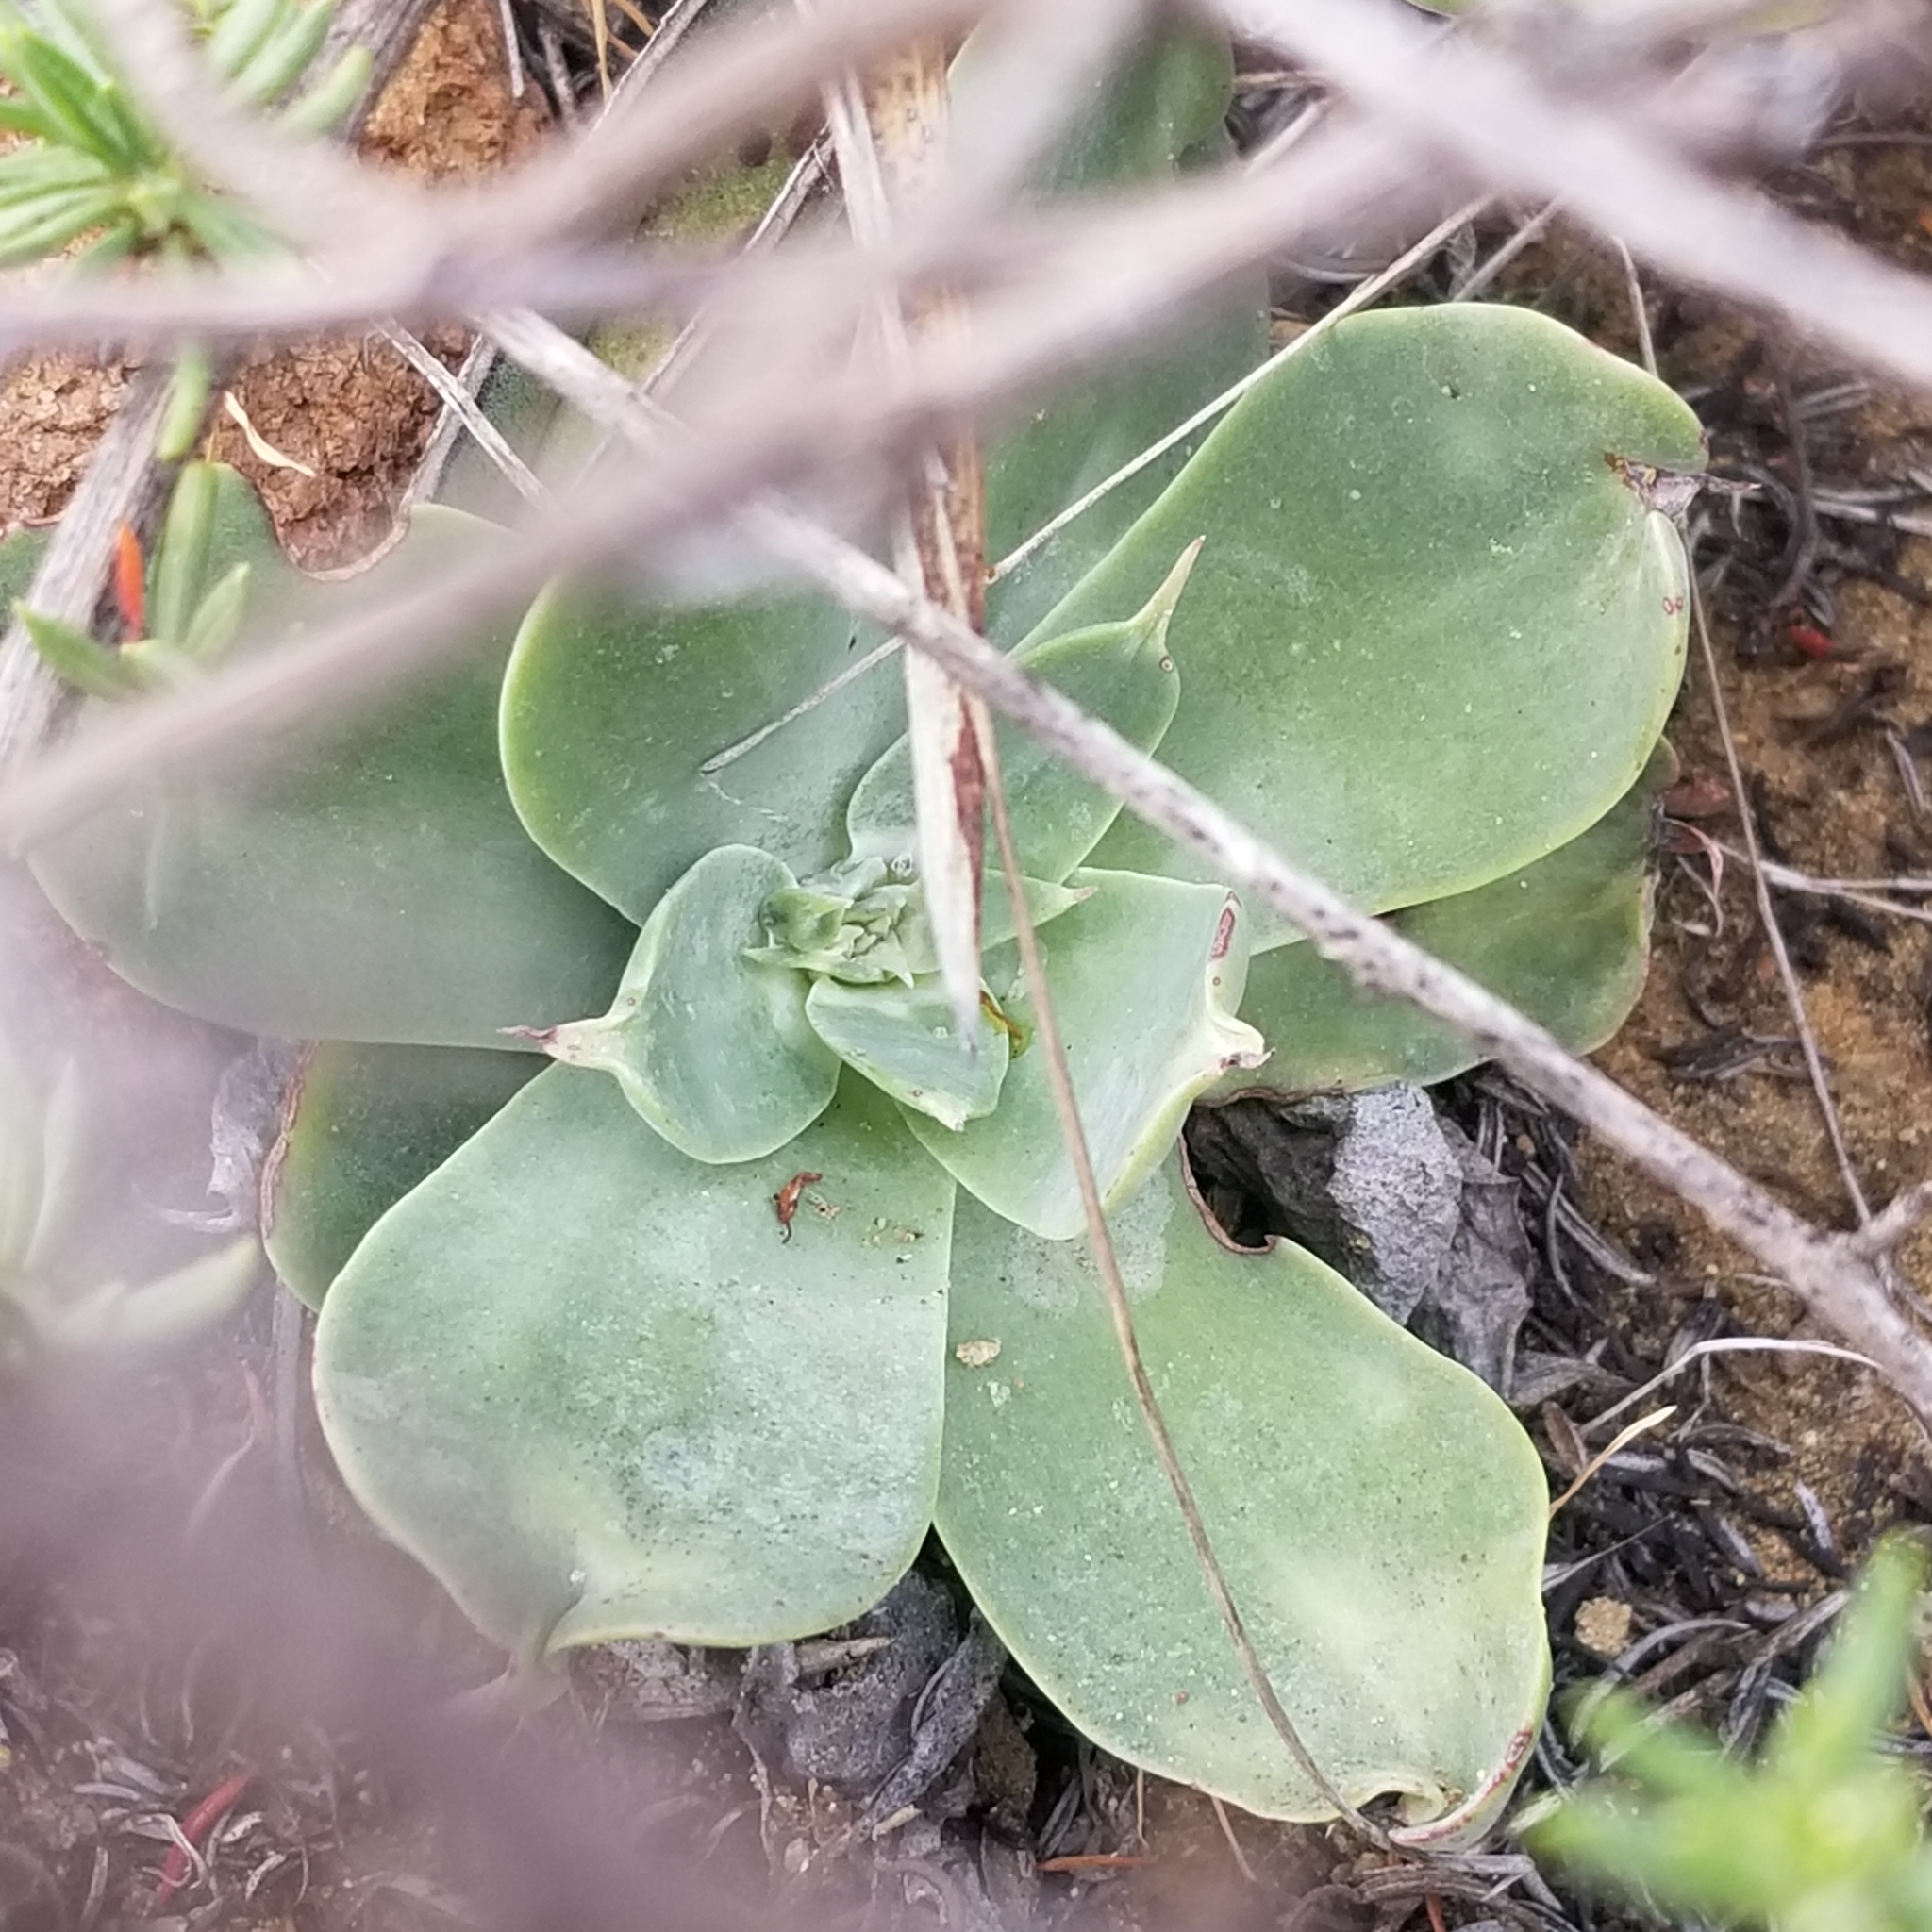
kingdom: Plantae
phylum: Tracheophyta
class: Magnoliopsida
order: Saxifragales
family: Crassulaceae
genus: Dudleya
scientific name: Dudleya pulverulenta
